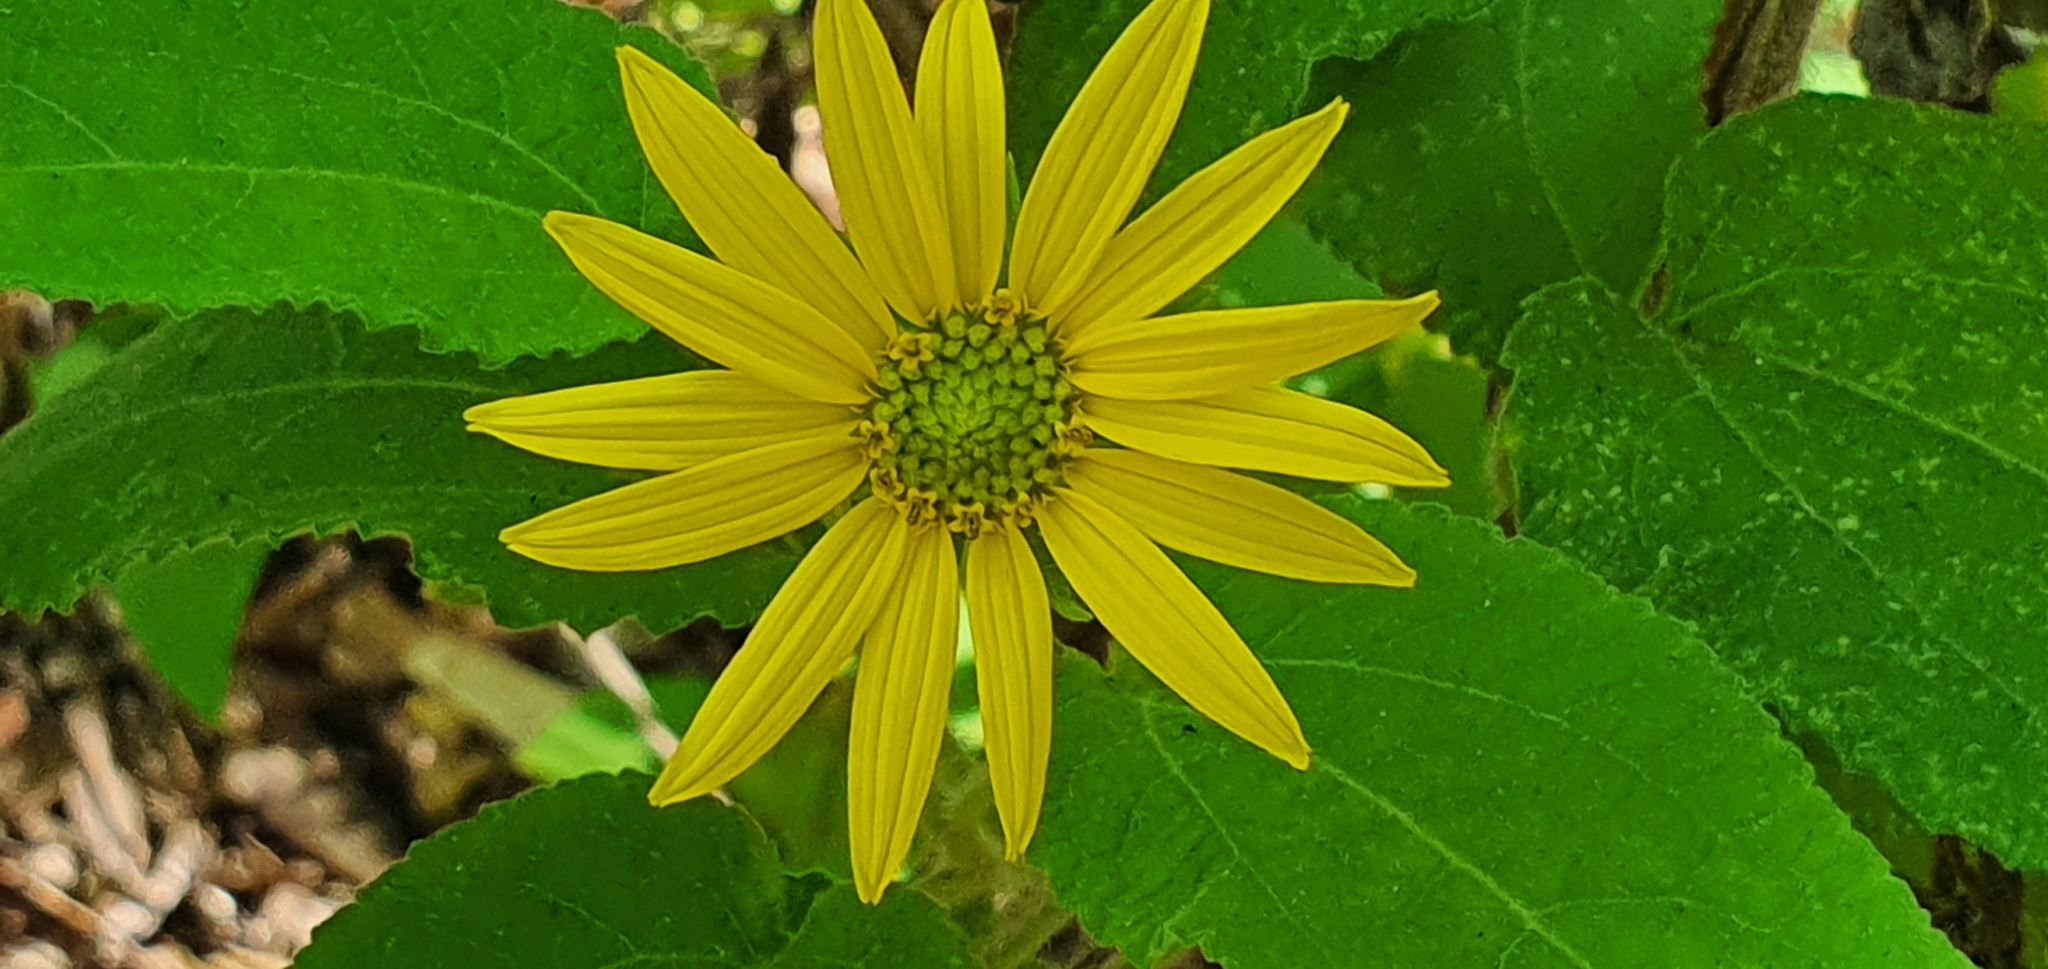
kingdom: Plantae
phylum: Tracheophyta
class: Magnoliopsida
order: Asterales
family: Asteraceae
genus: Vigethia
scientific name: Vigethia mexicana
